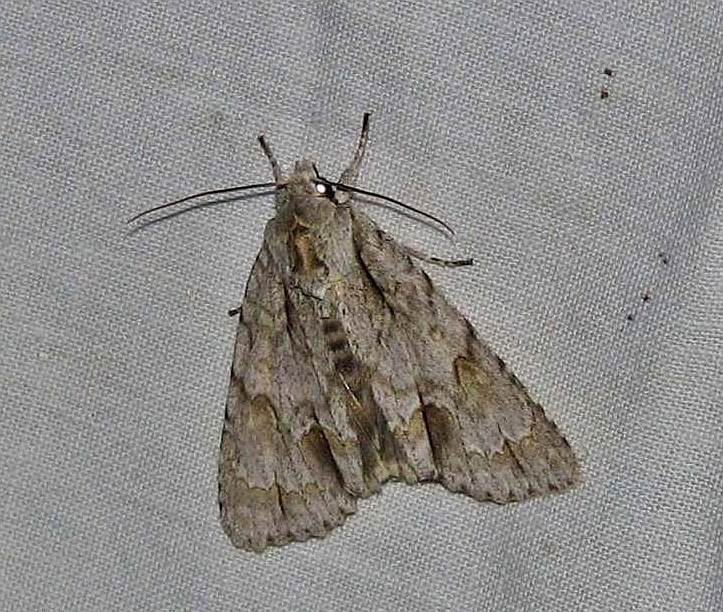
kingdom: Animalia
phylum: Arthropoda
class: Insecta
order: Lepidoptera
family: Noctuidae
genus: Acronicta
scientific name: Acronicta morula
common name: Ochre dagger
